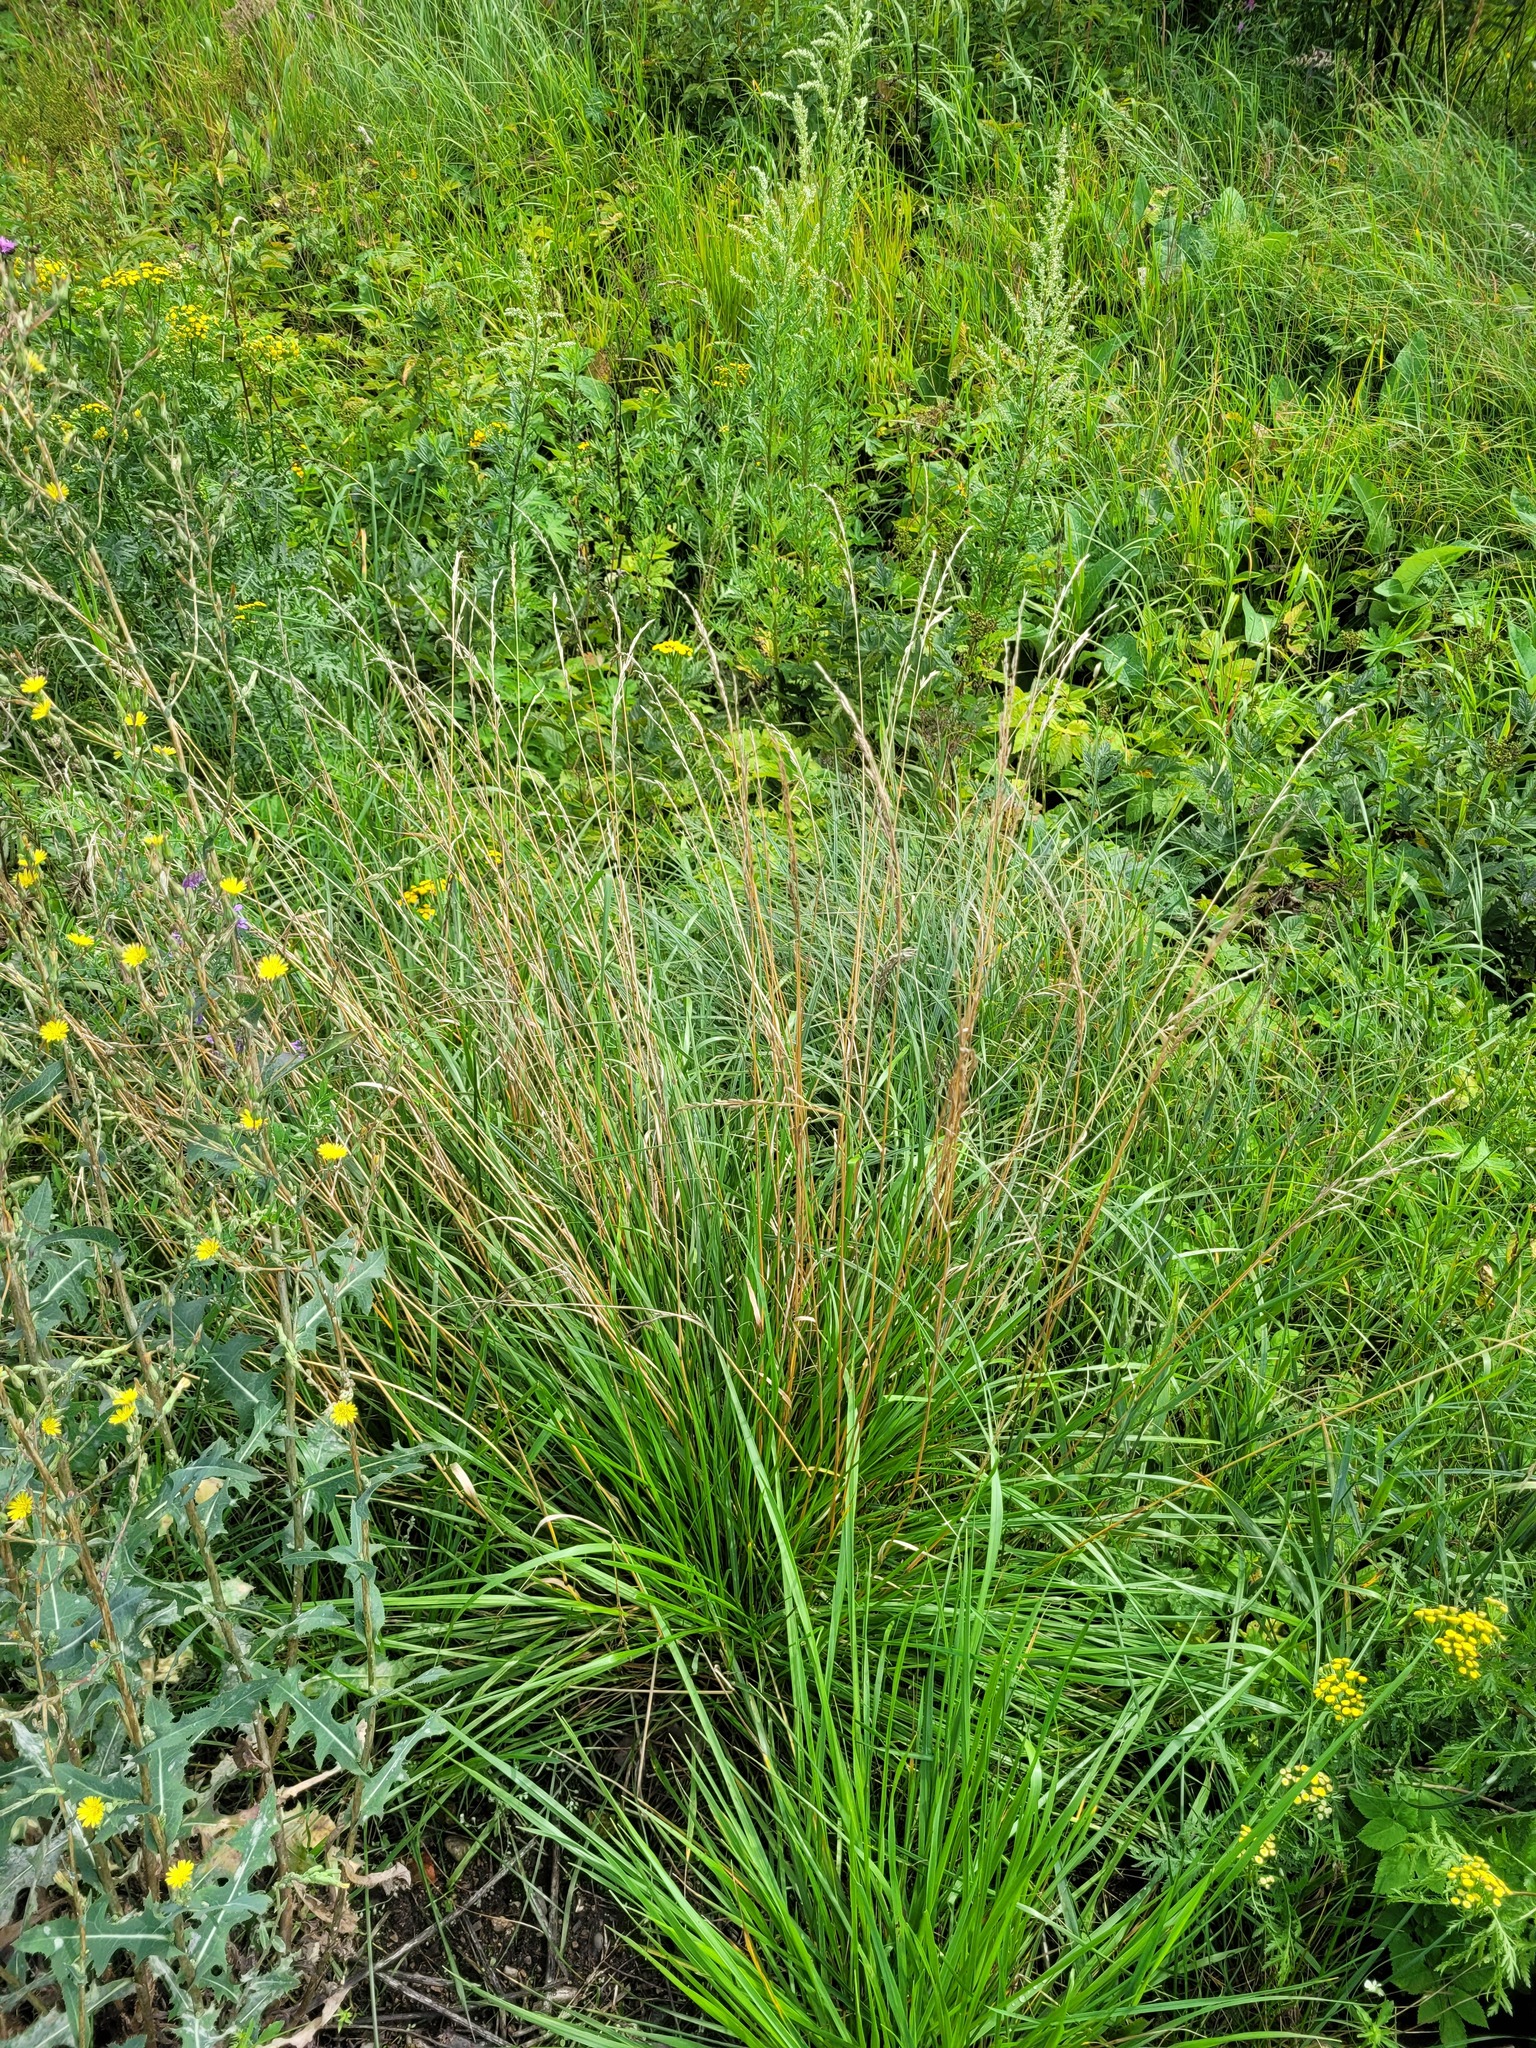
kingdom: Plantae
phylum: Tracheophyta
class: Liliopsida
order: Poales
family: Poaceae
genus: Lolium
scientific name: Lolium arundinaceum
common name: Reed fescue
